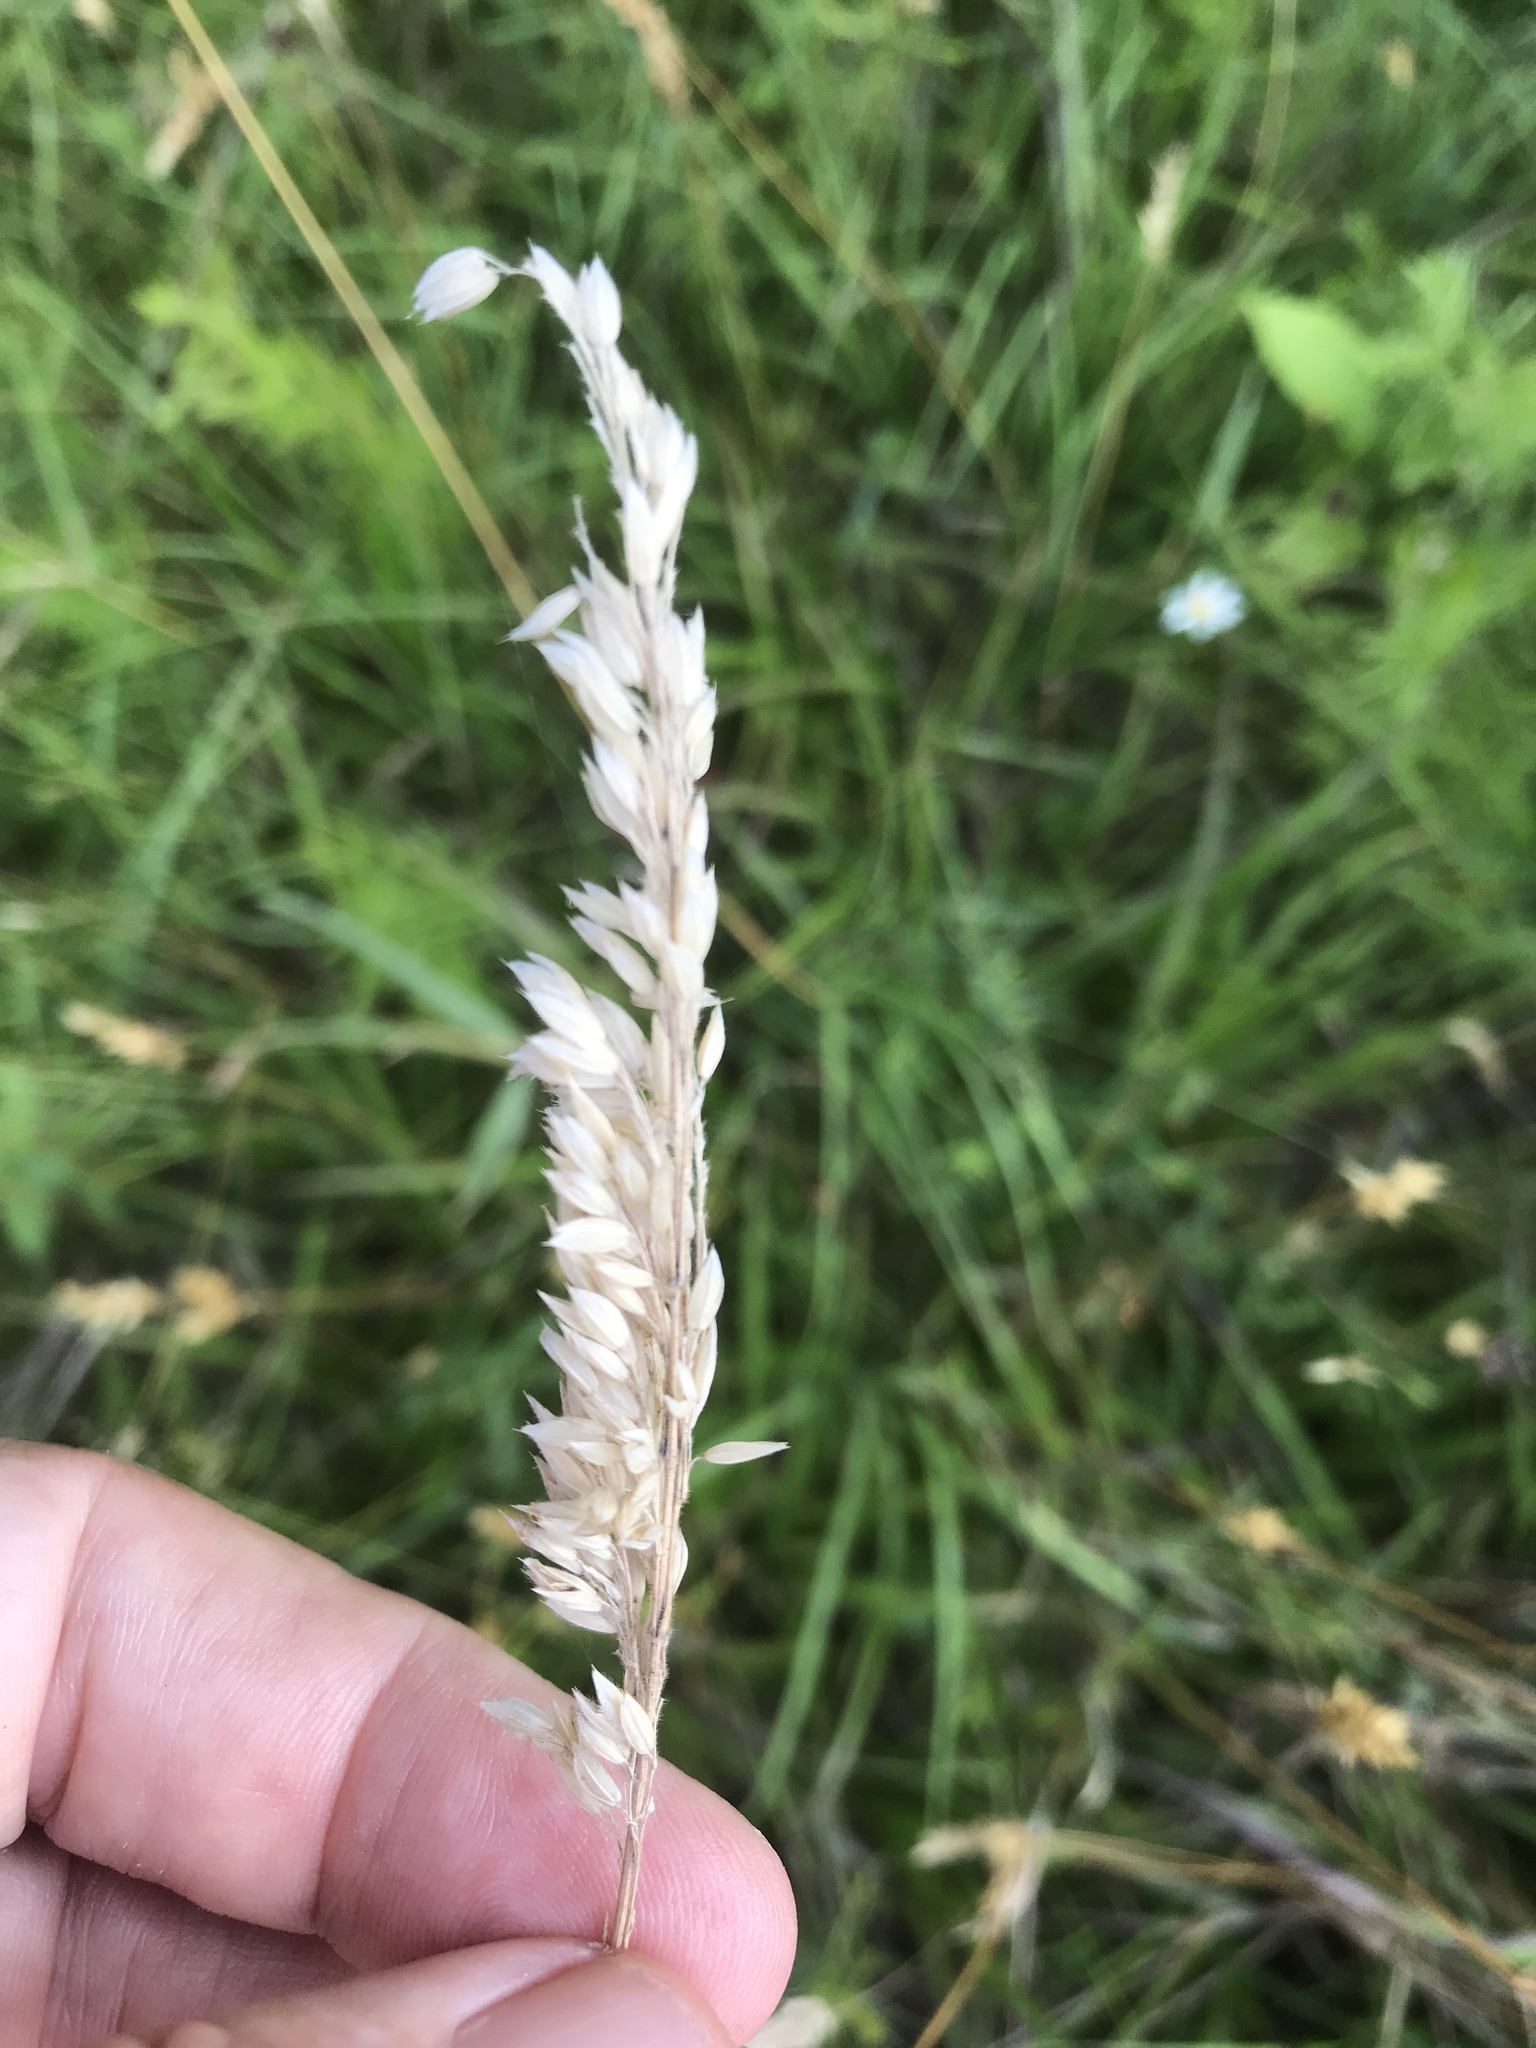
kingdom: Plantae
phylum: Tracheophyta
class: Liliopsida
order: Poales
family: Poaceae
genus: Holcus
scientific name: Holcus lanatus
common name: Yorkshire-fog
